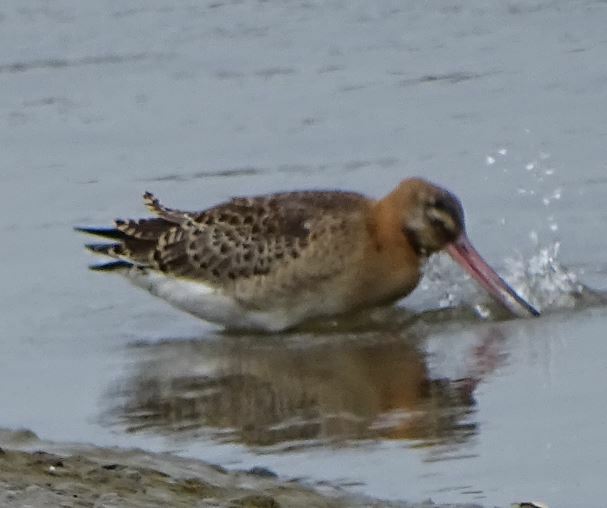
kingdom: Animalia
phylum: Chordata
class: Aves
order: Charadriiformes
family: Scolopacidae
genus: Limosa
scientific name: Limosa limosa
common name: Black-tailed godwit
